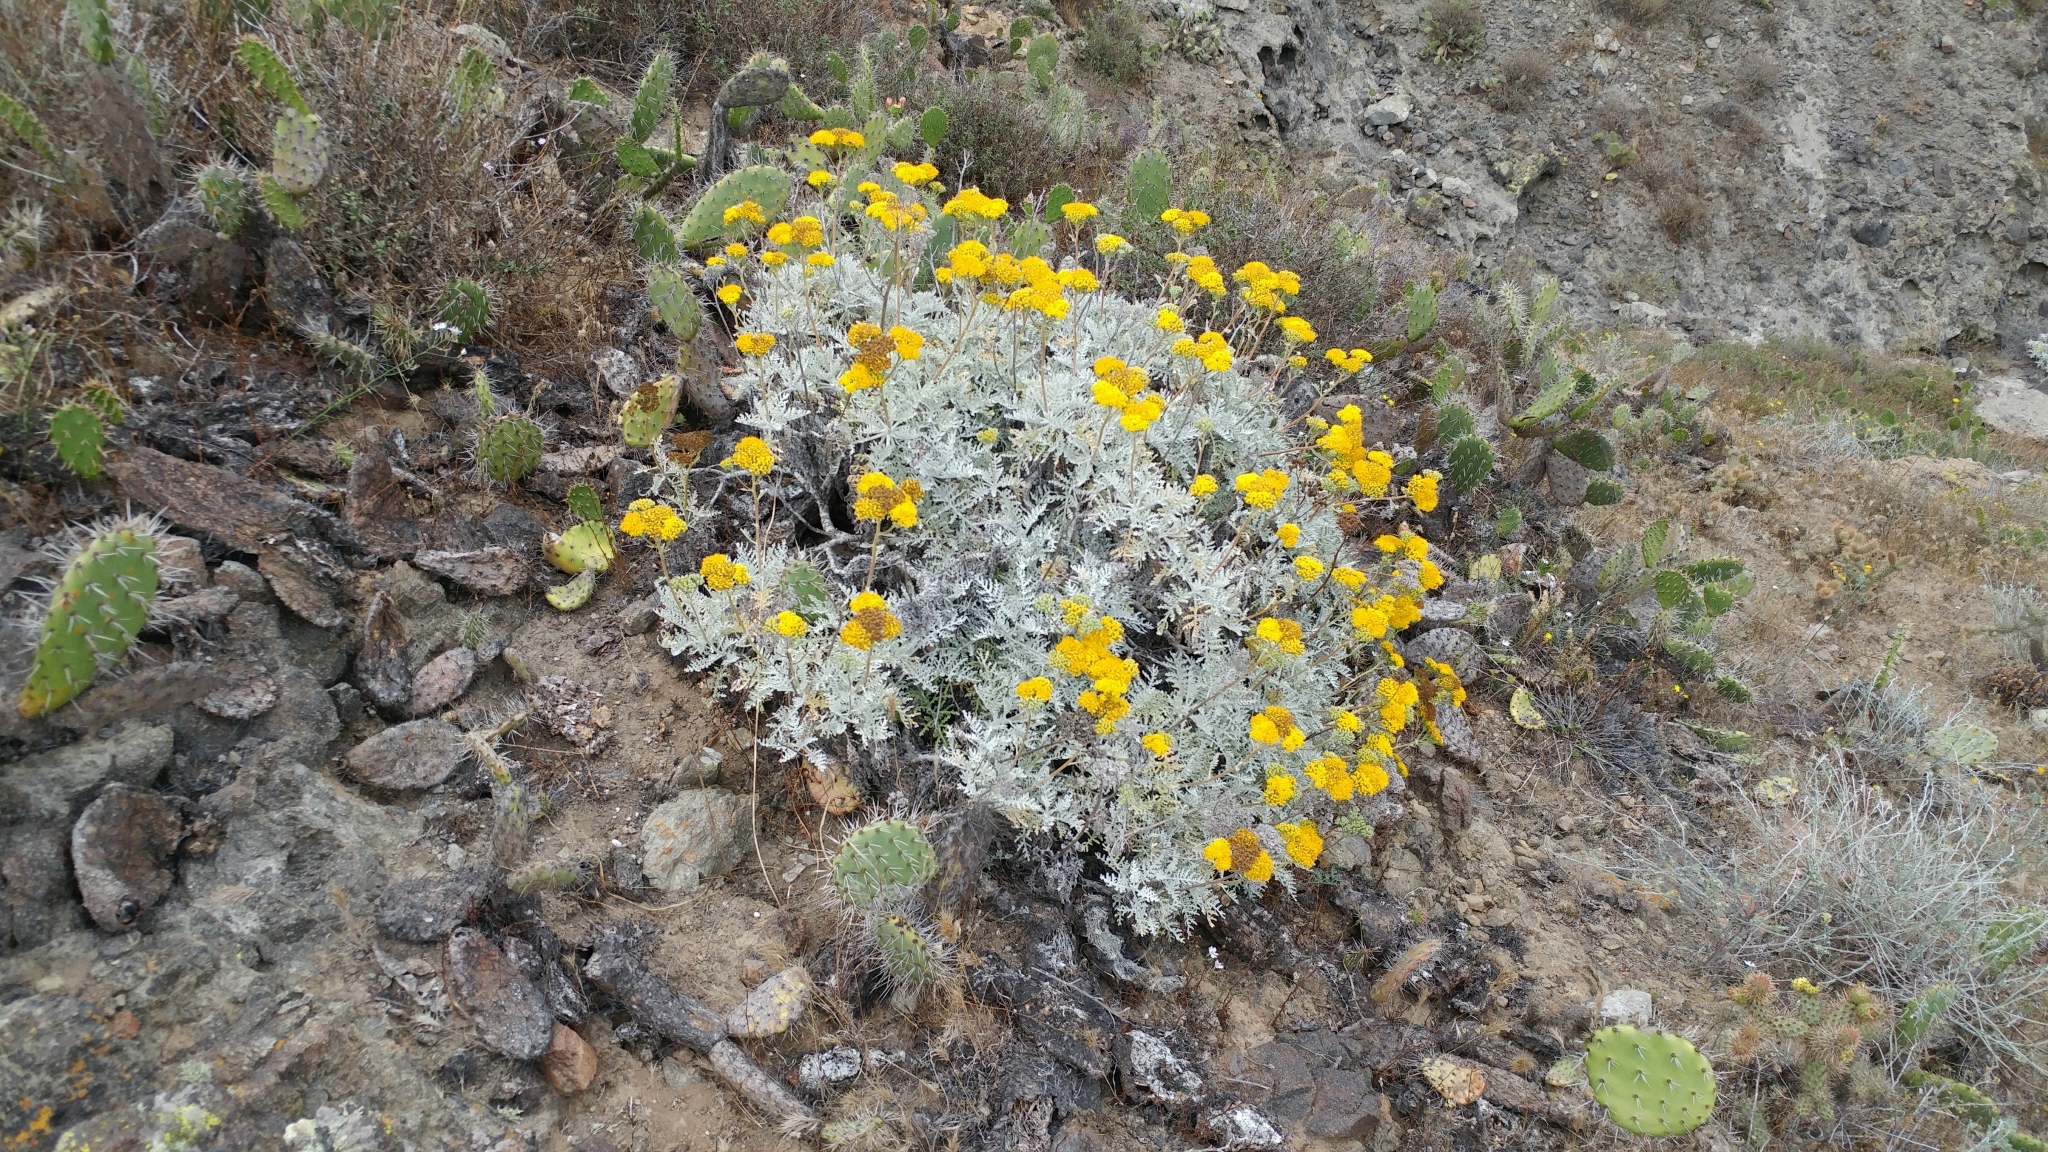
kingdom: Plantae
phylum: Tracheophyta
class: Magnoliopsida
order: Asterales
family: Asteraceae
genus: Constancea
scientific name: Constancea nevinii
